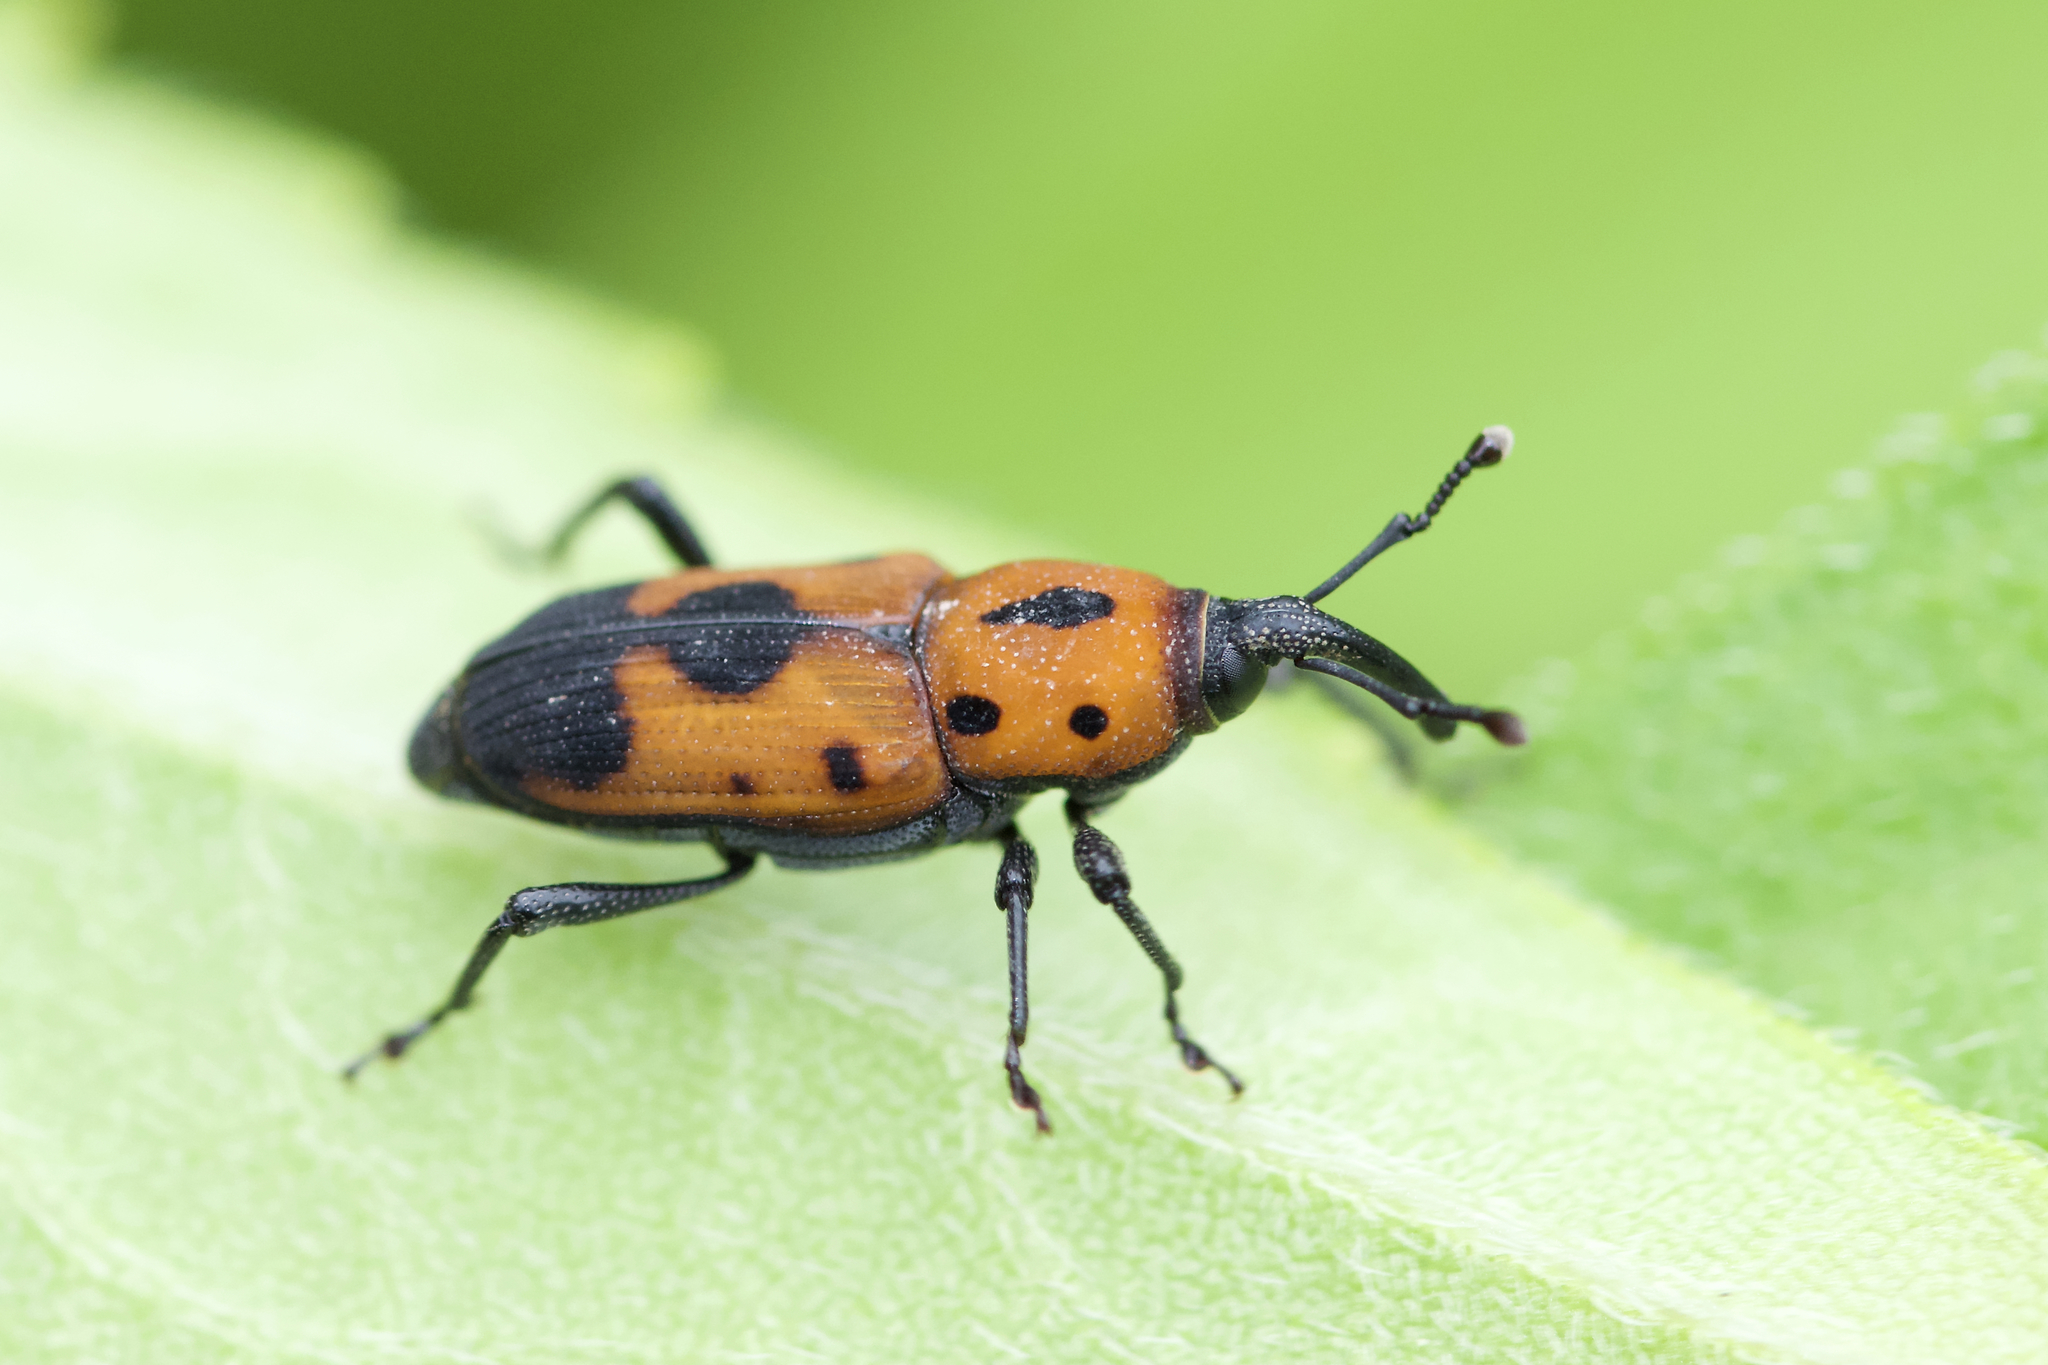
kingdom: Animalia
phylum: Arthropoda
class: Insecta
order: Coleoptera
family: Dryophthoridae
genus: Rhodobaenus
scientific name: Rhodobaenus quinquepunctatus
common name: Cocklebur weevil
